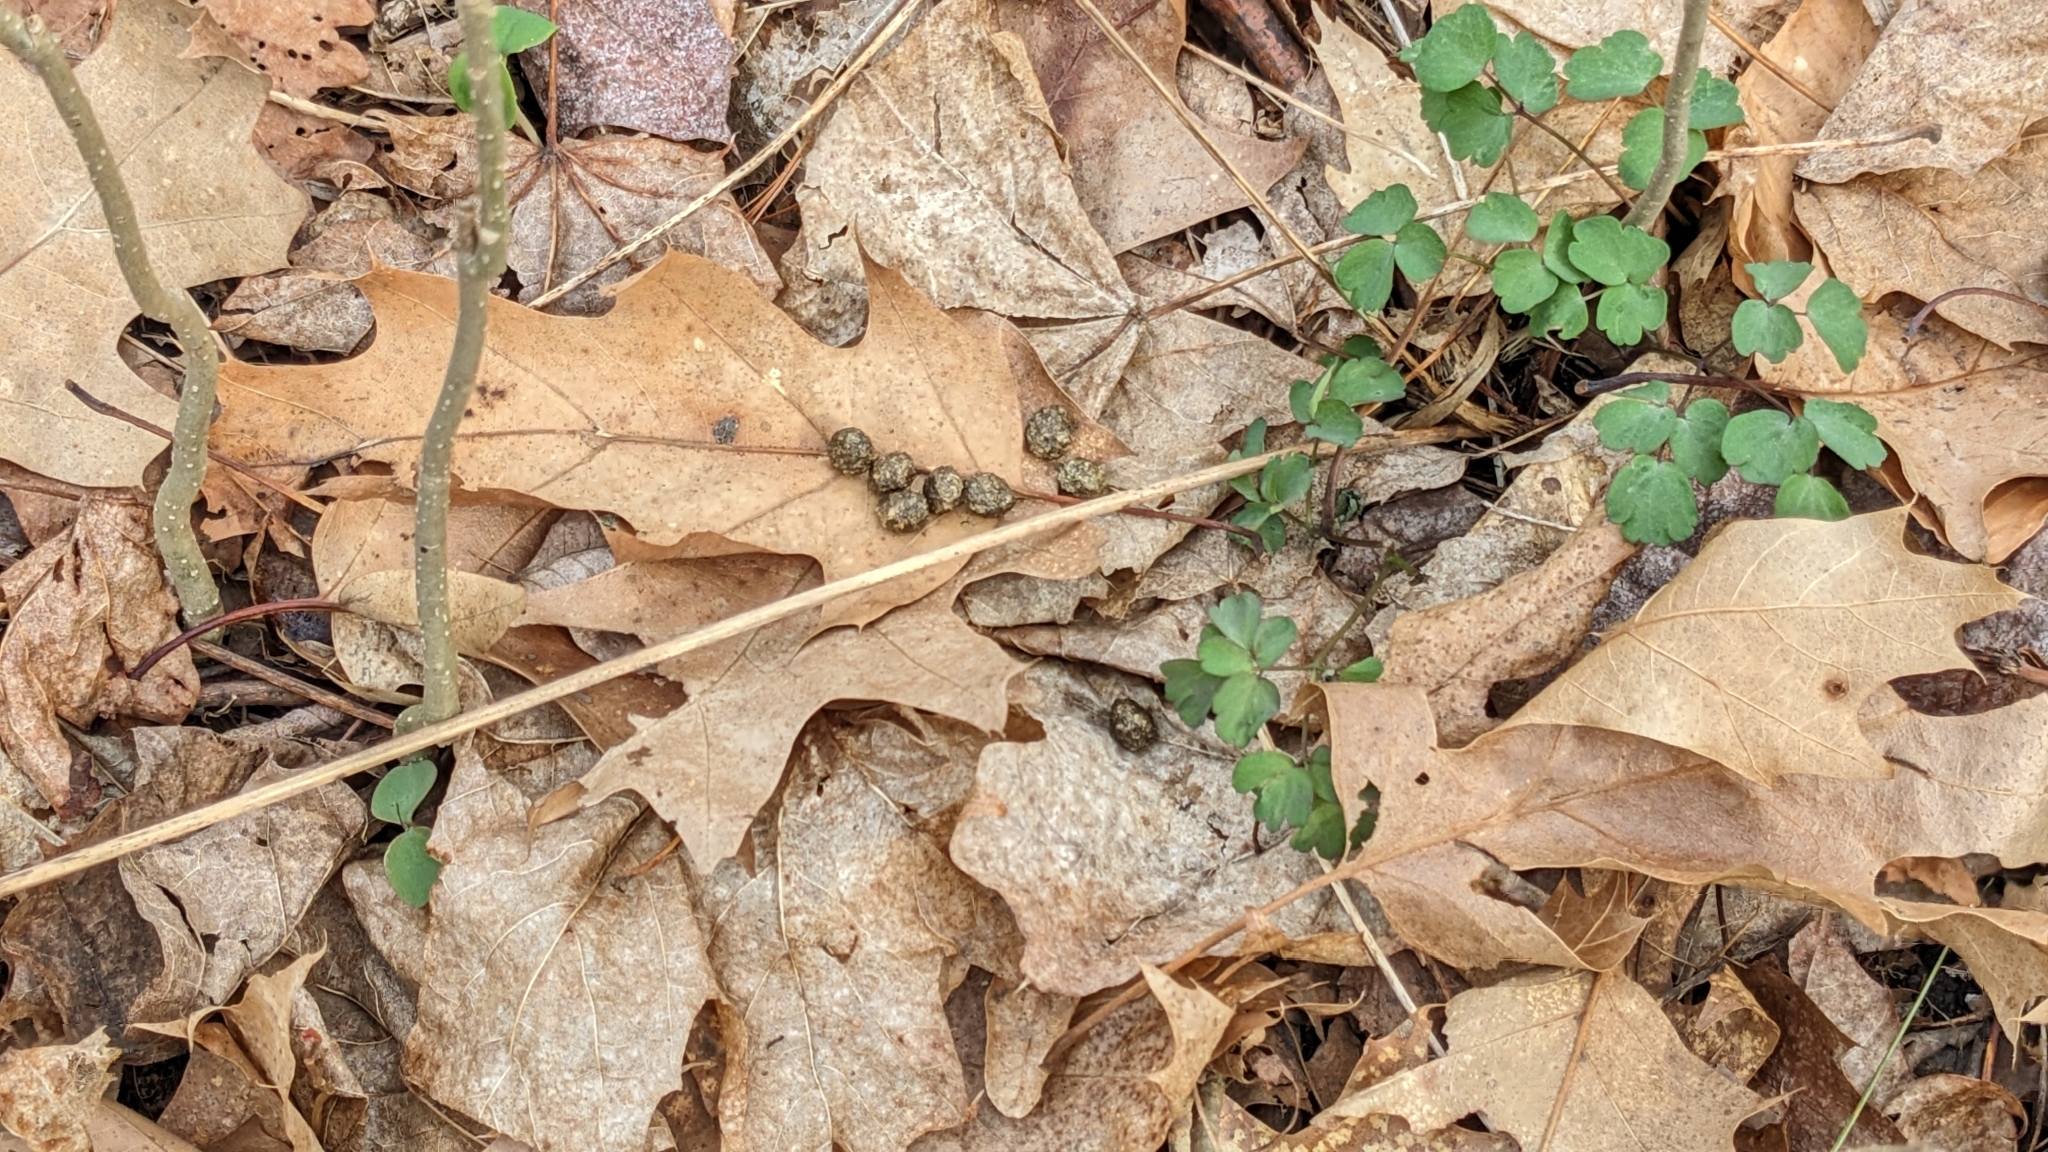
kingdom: Plantae
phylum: Tracheophyta
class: Magnoliopsida
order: Ericales
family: Balsaminaceae
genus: Impatiens
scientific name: Impatiens capensis
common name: Orange balsam
